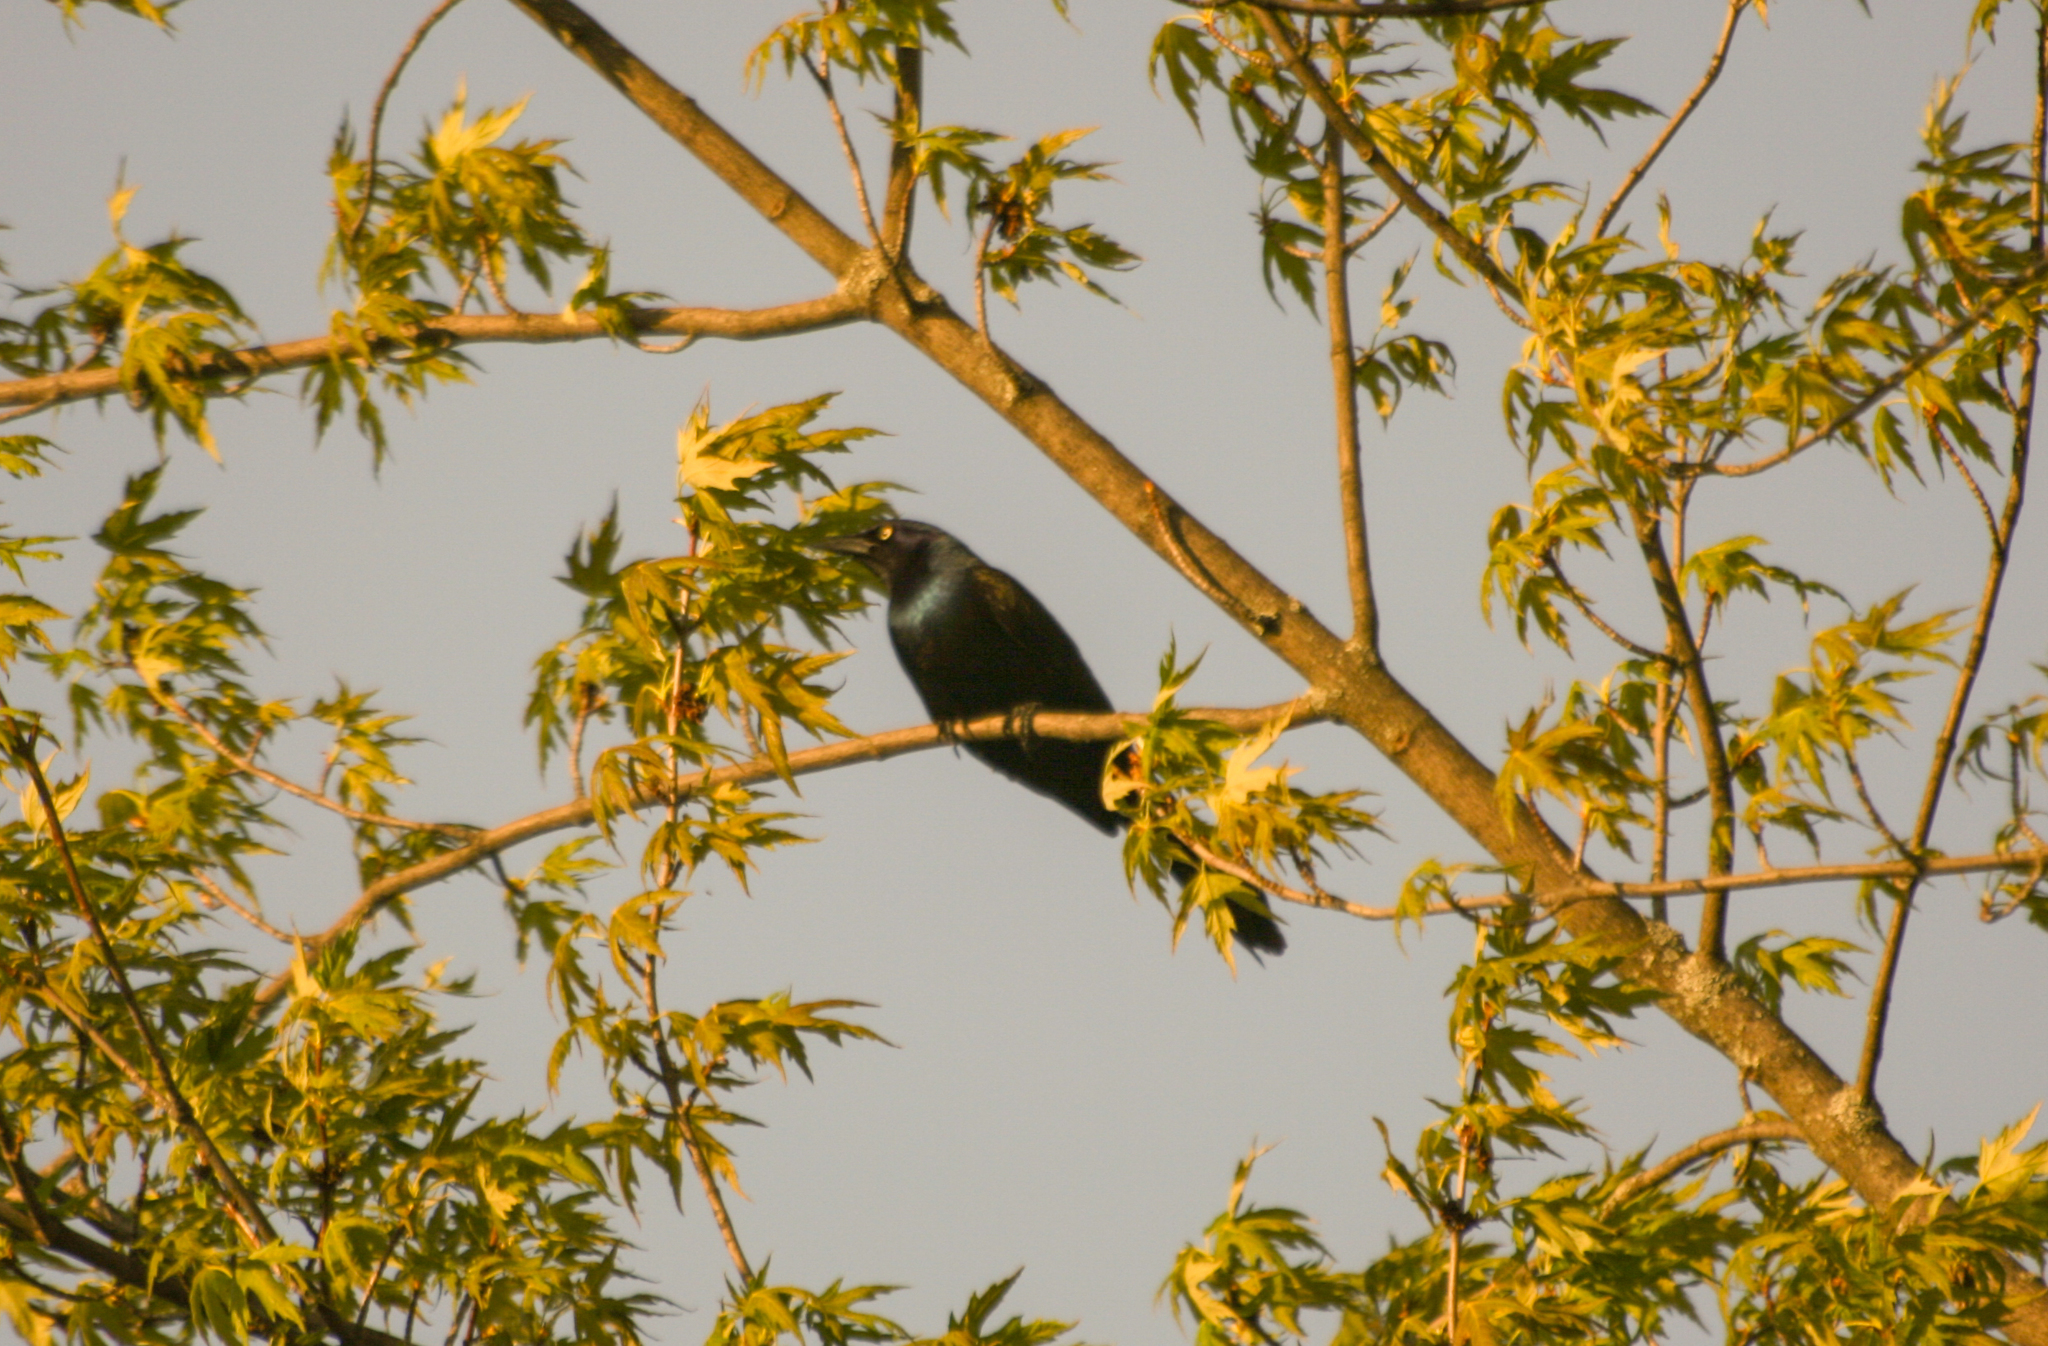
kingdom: Animalia
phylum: Chordata
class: Aves
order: Passeriformes
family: Icteridae
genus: Quiscalus
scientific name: Quiscalus quiscula
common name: Common grackle
